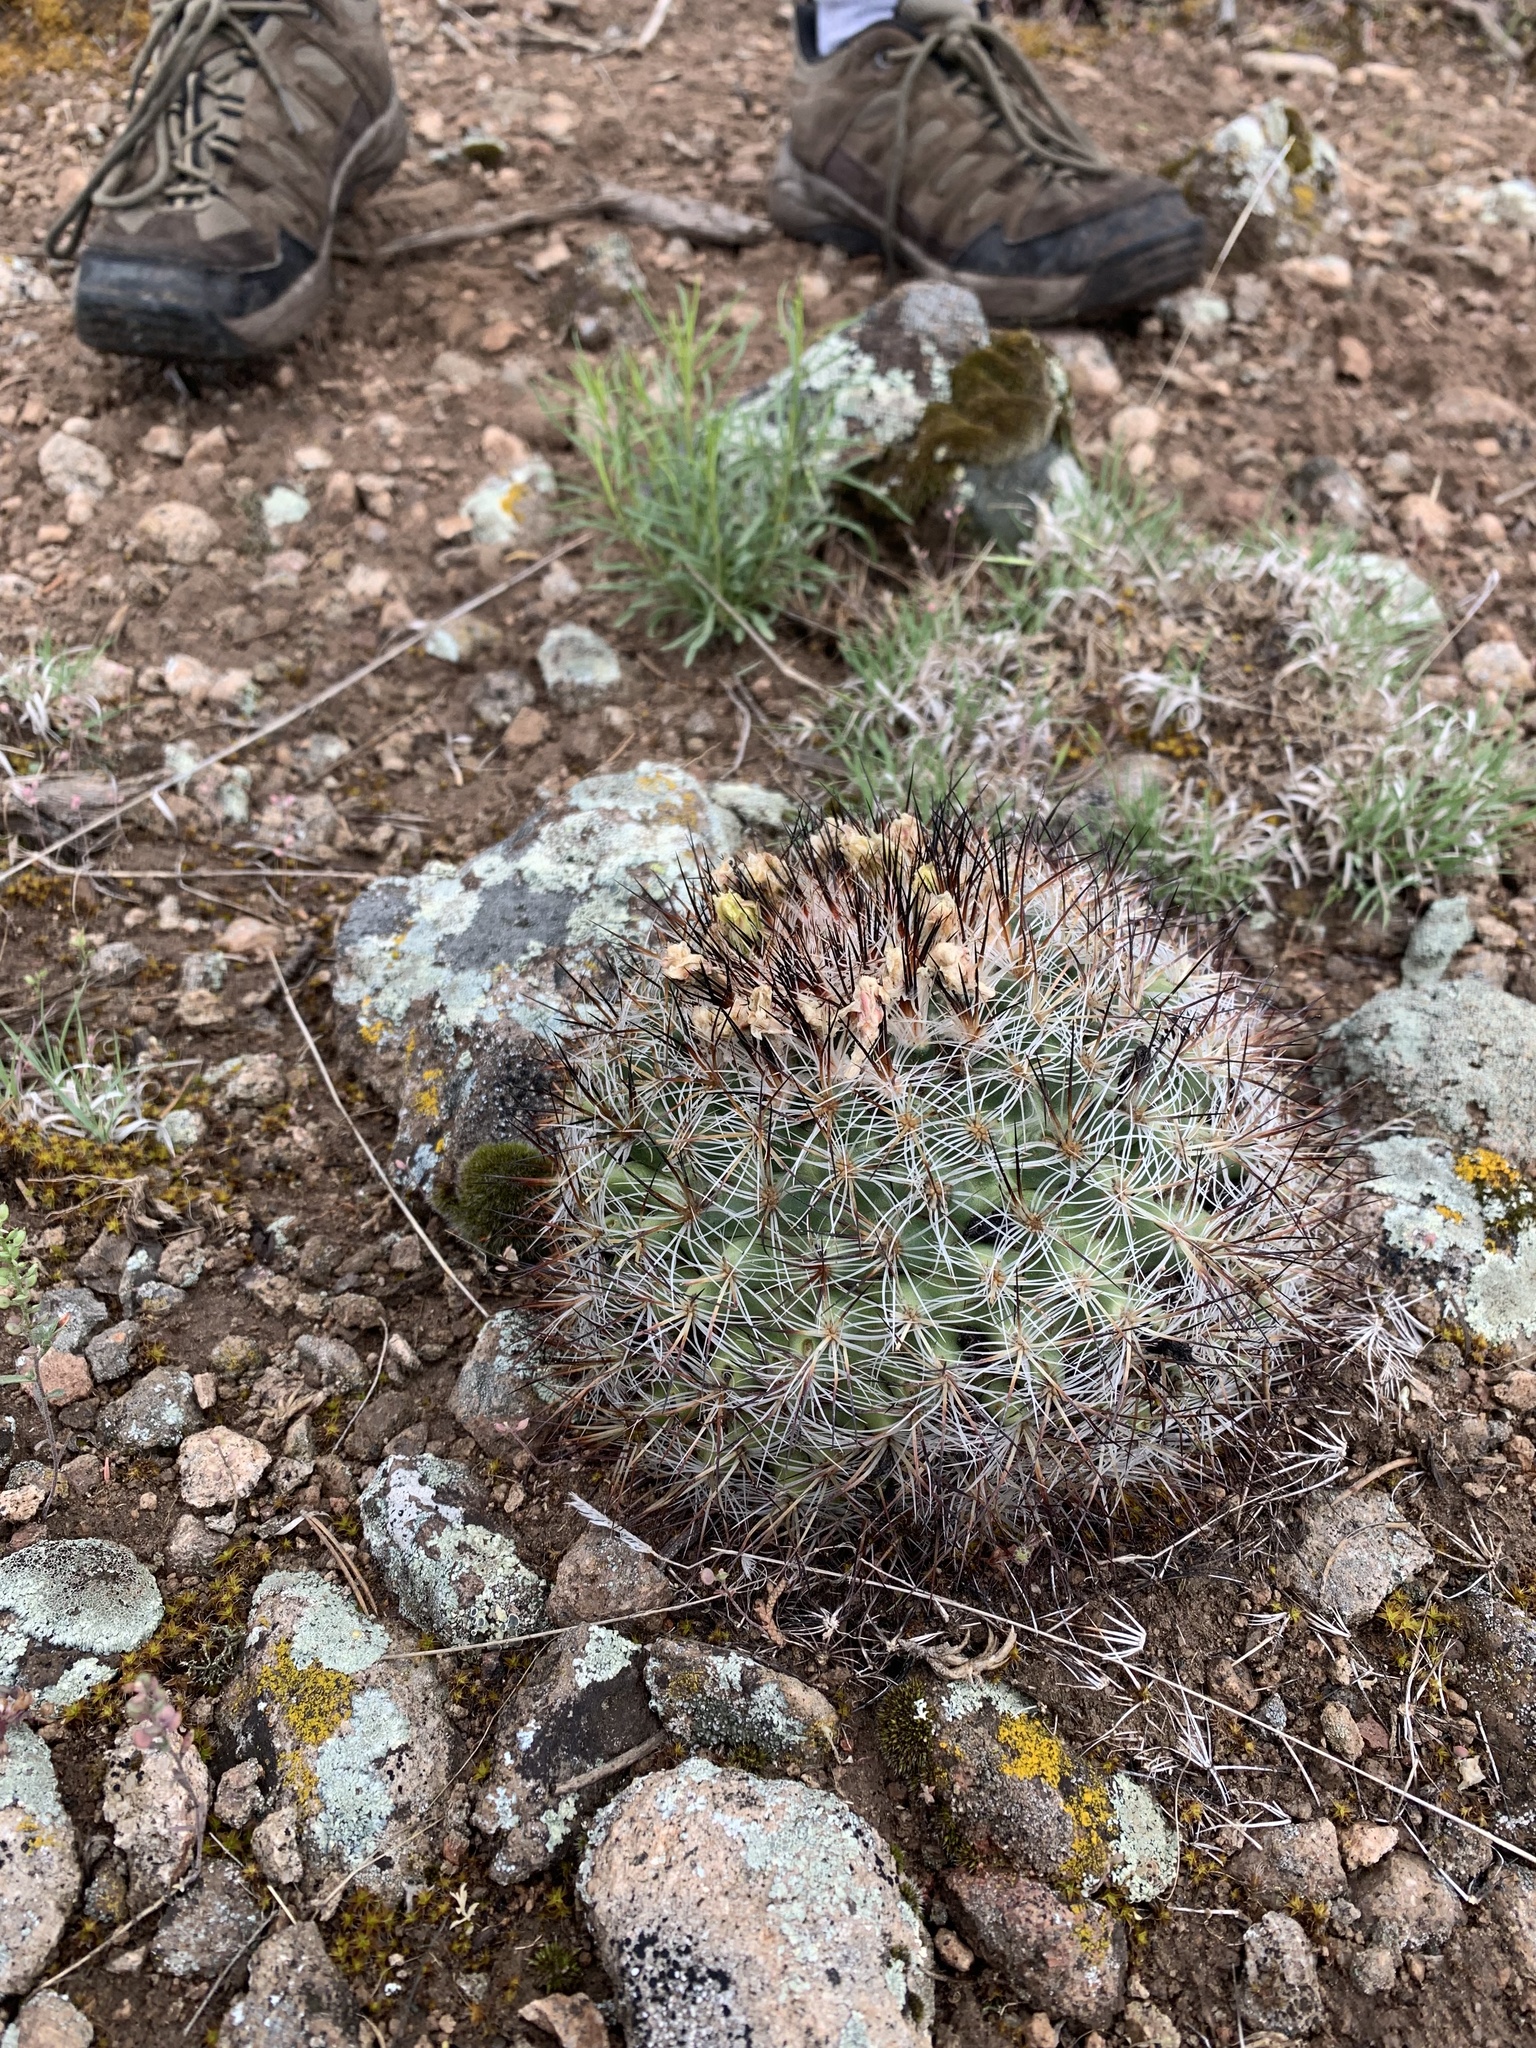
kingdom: Plantae
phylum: Tracheophyta
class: Magnoliopsida
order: Caryophyllales
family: Cactaceae
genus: Pediocactus
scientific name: Pediocactus simpsonii
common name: Simpson's hedgehog cactus
